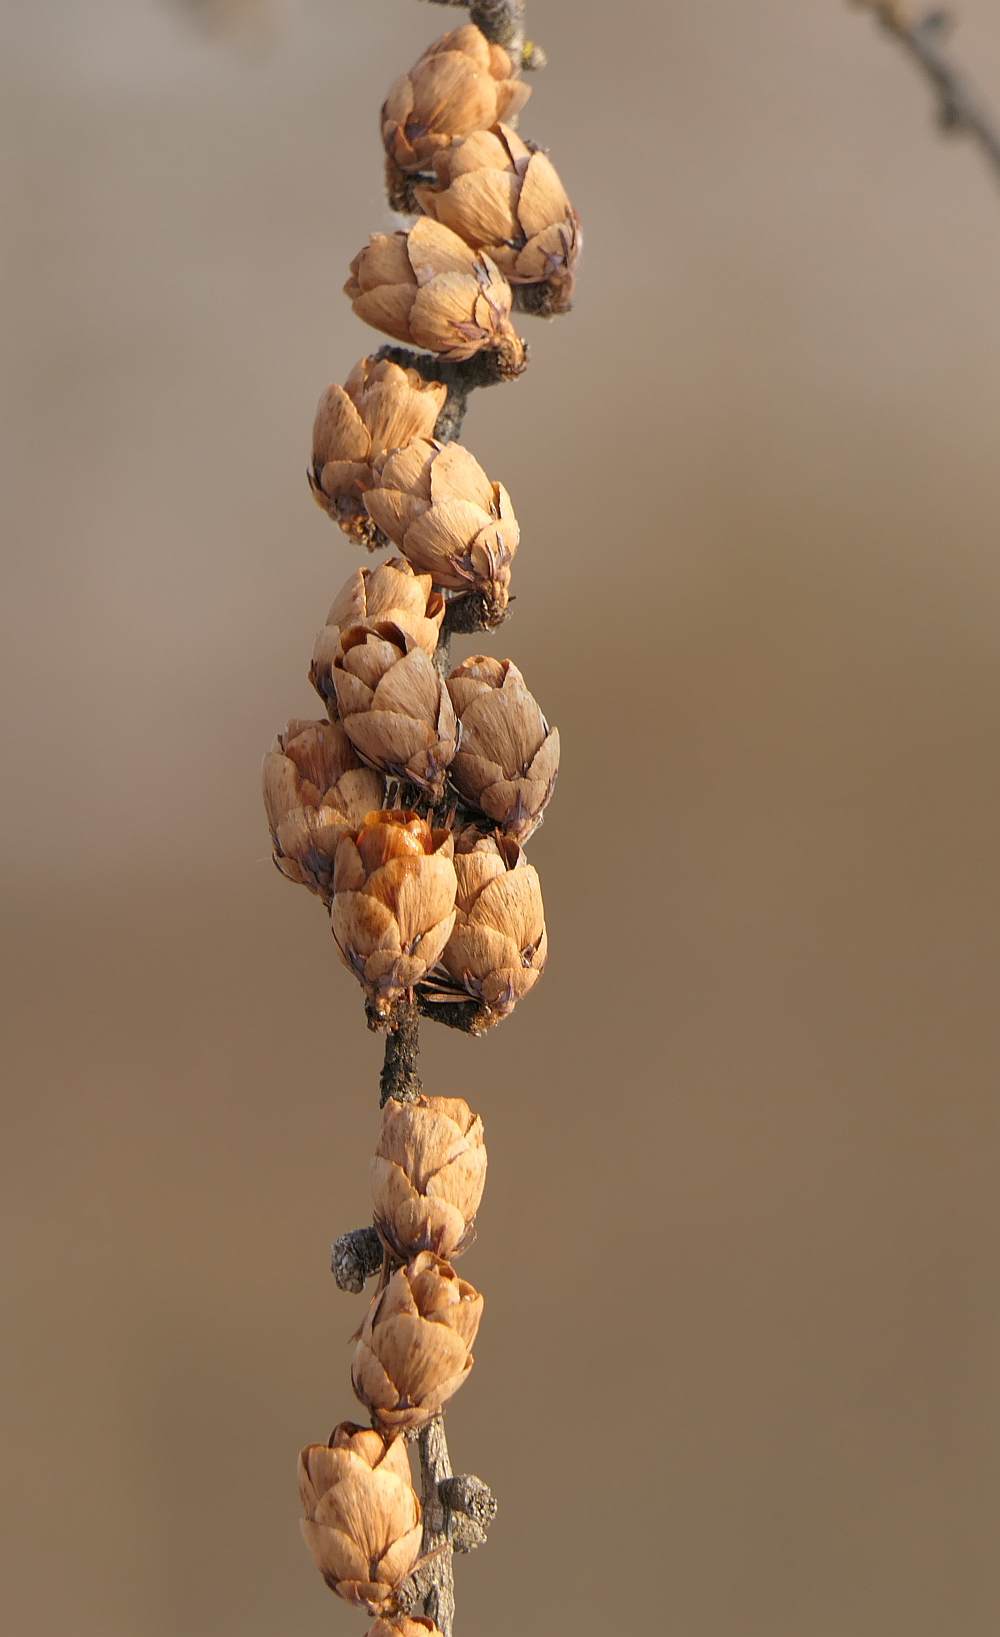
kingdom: Plantae
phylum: Tracheophyta
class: Pinopsida
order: Pinales
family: Pinaceae
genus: Larix
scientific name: Larix laricina
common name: American larch
